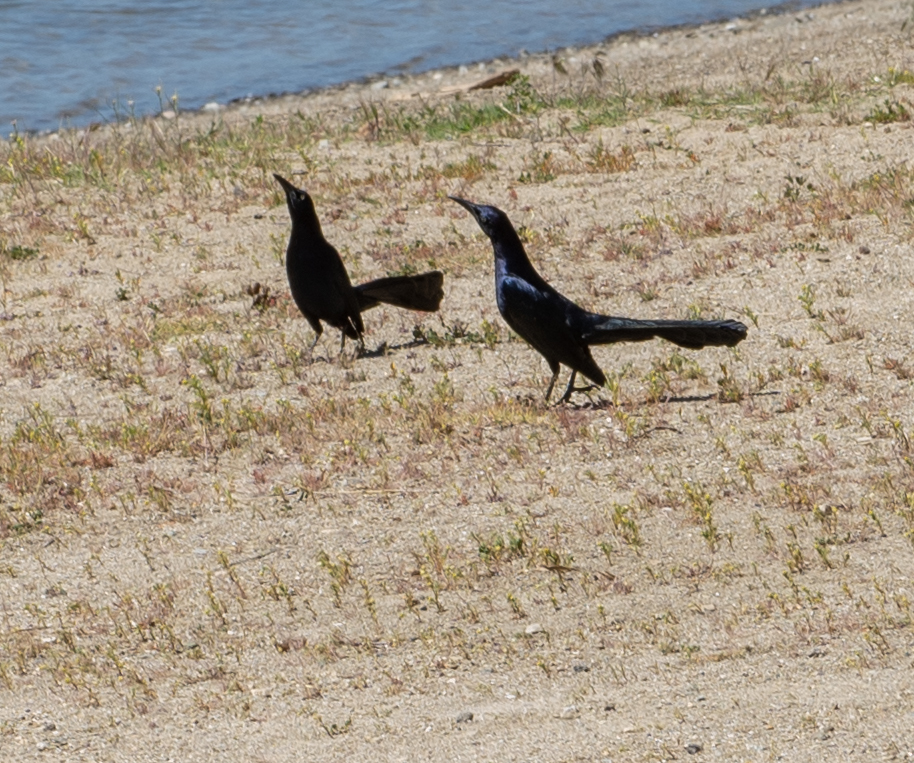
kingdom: Animalia
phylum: Chordata
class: Aves
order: Passeriformes
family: Icteridae
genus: Quiscalus
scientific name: Quiscalus mexicanus
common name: Great-tailed grackle
